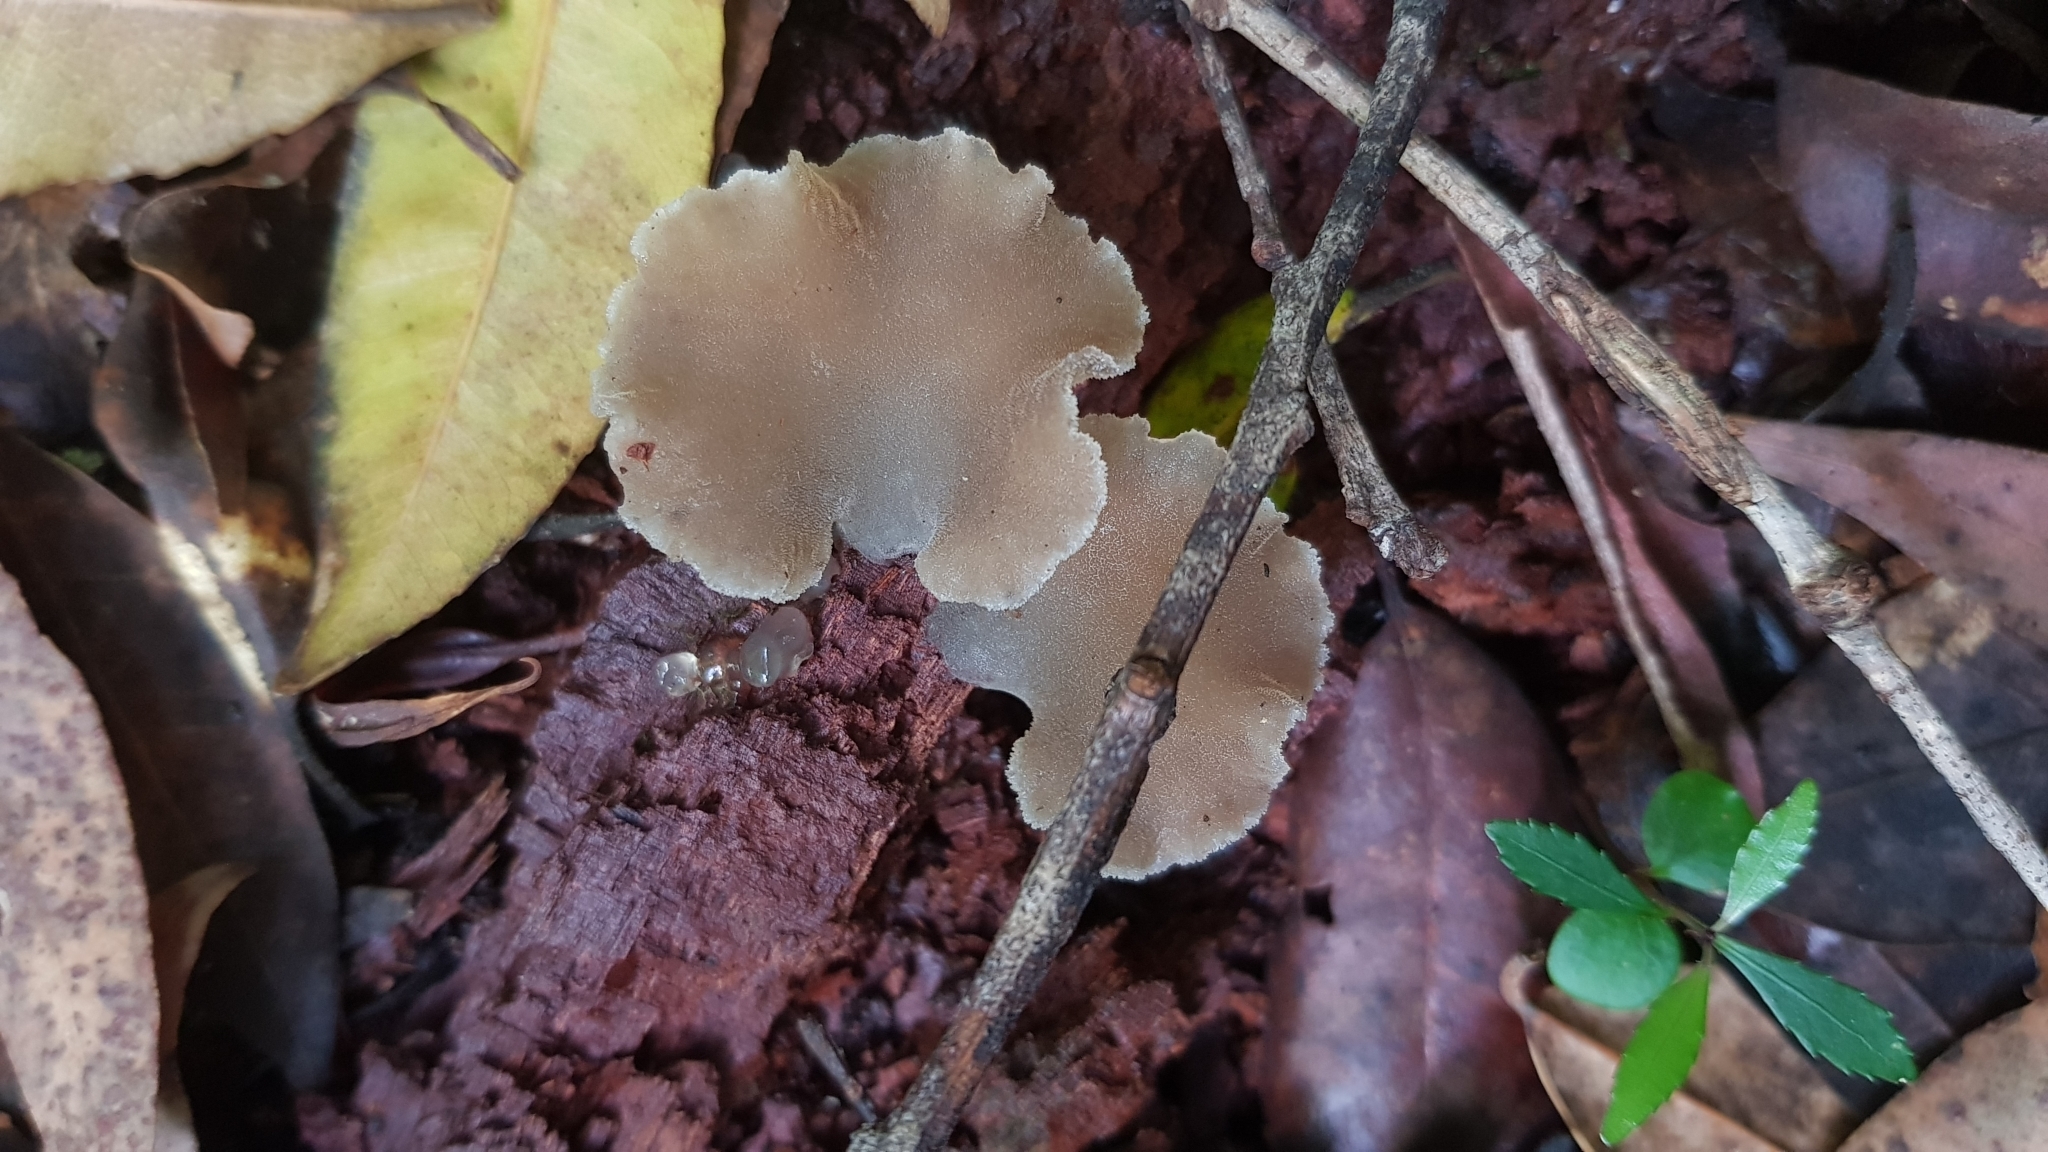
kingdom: Fungi
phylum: Basidiomycota
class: Agaricomycetes
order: Auriculariales
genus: Pseudohydnum
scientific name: Pseudohydnum gelatinosum
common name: Jelly tongue
